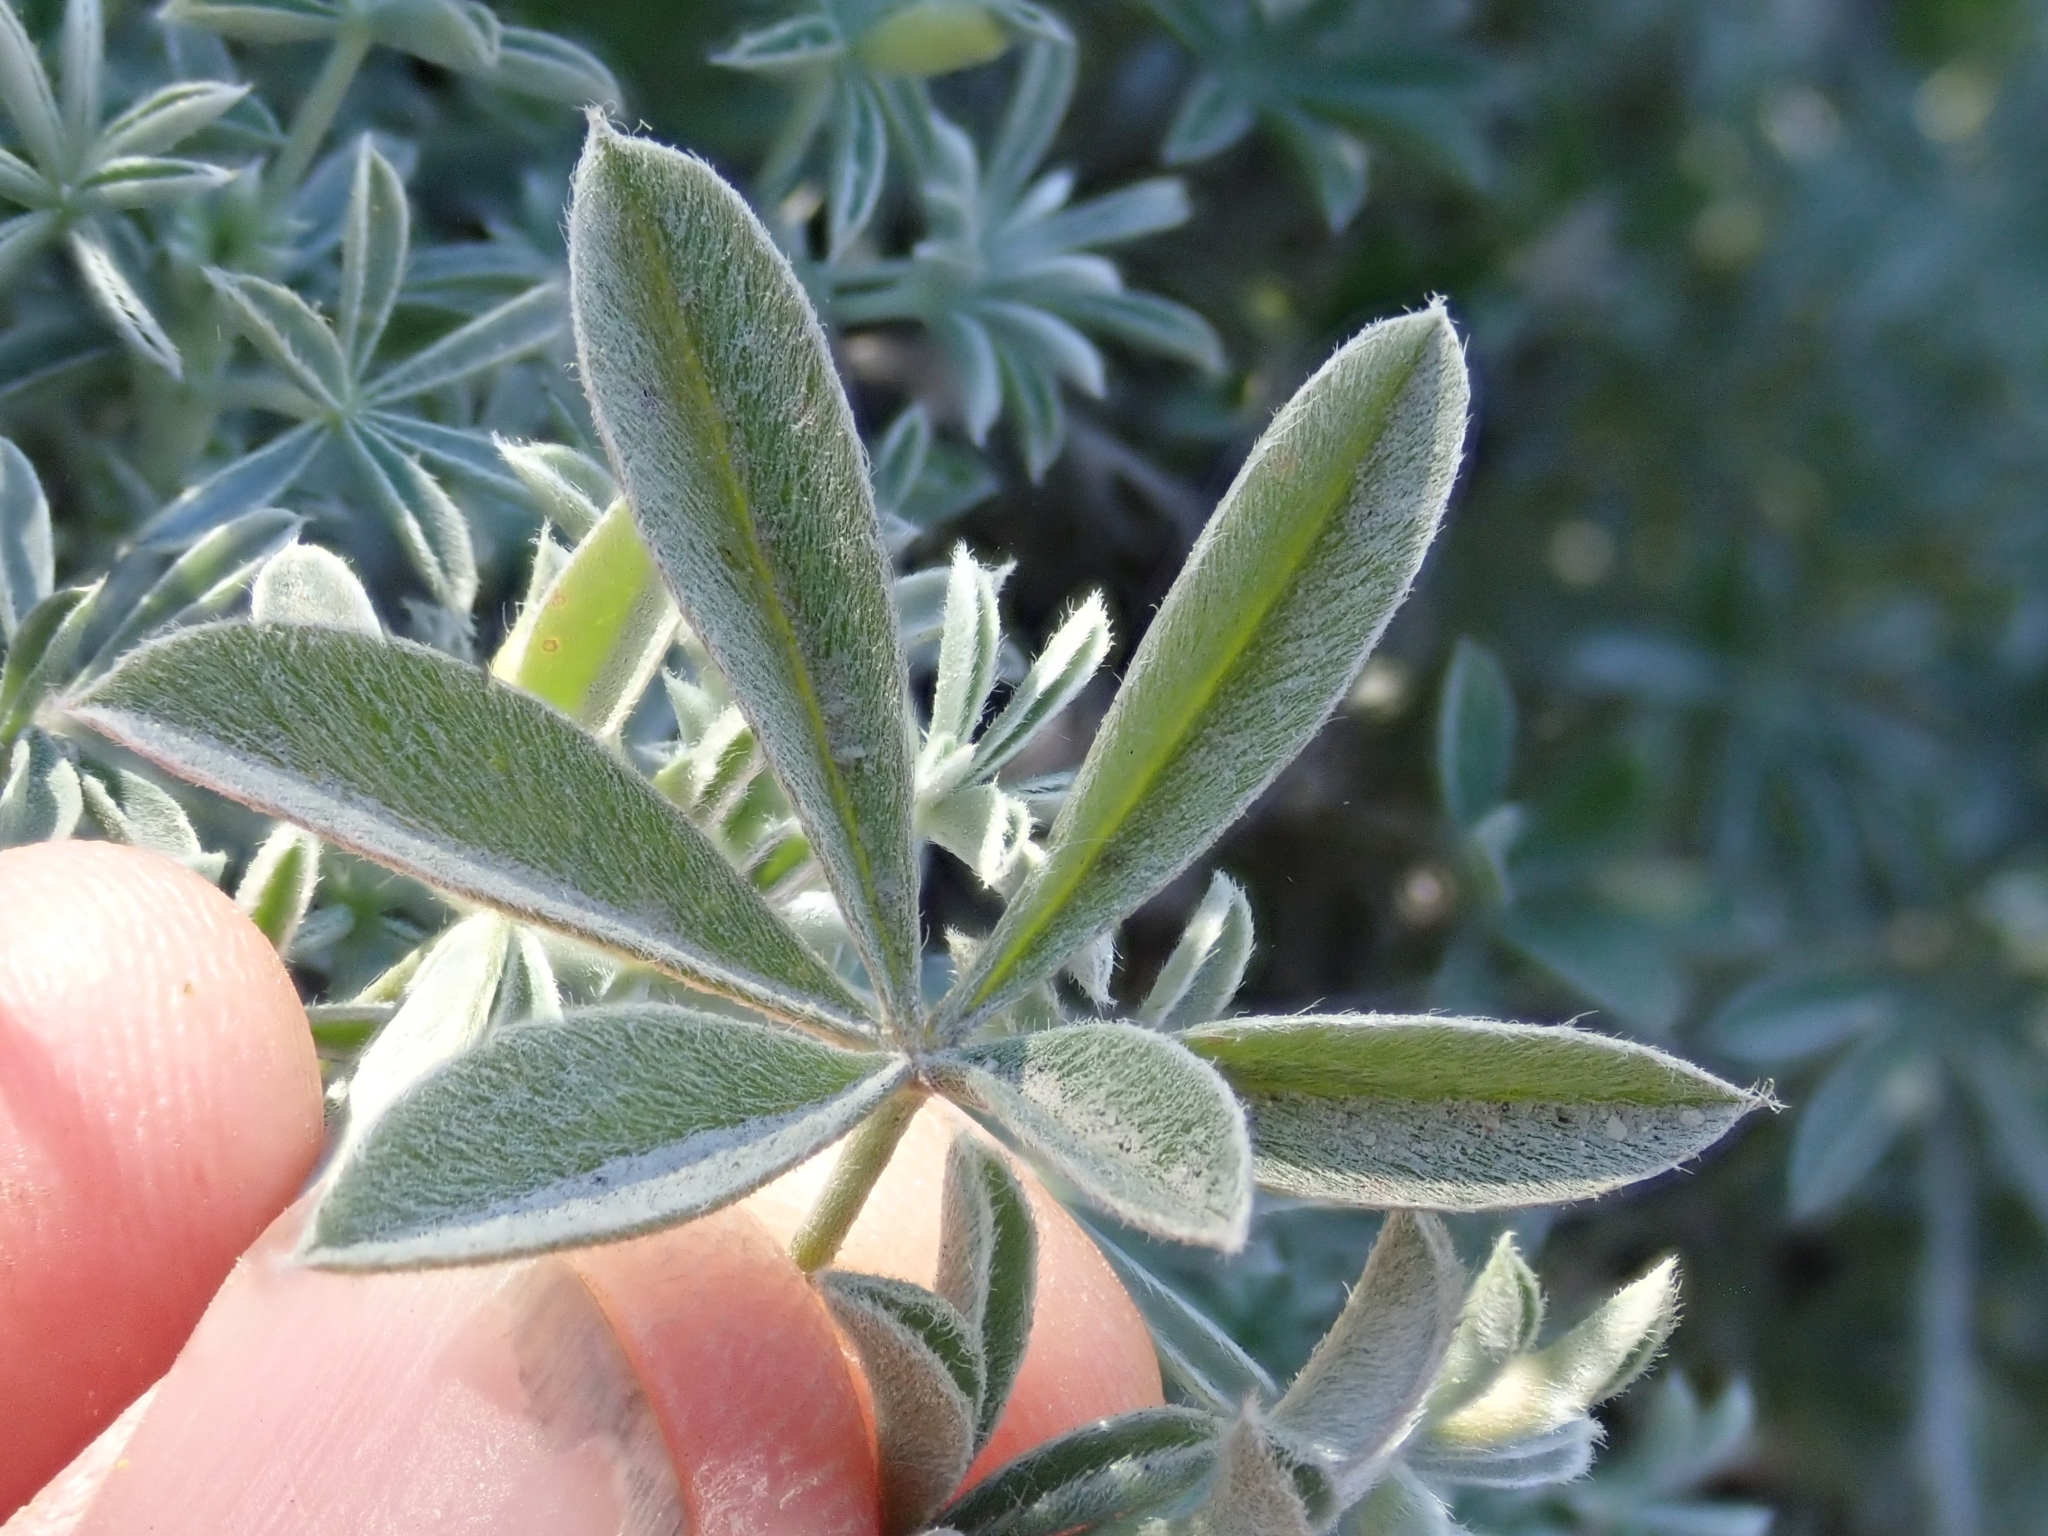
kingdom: Plantae
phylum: Tracheophyta
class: Magnoliopsida
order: Fabales
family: Fabaceae
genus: Lupinus
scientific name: Lupinus albifrons
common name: Foothill lupine
